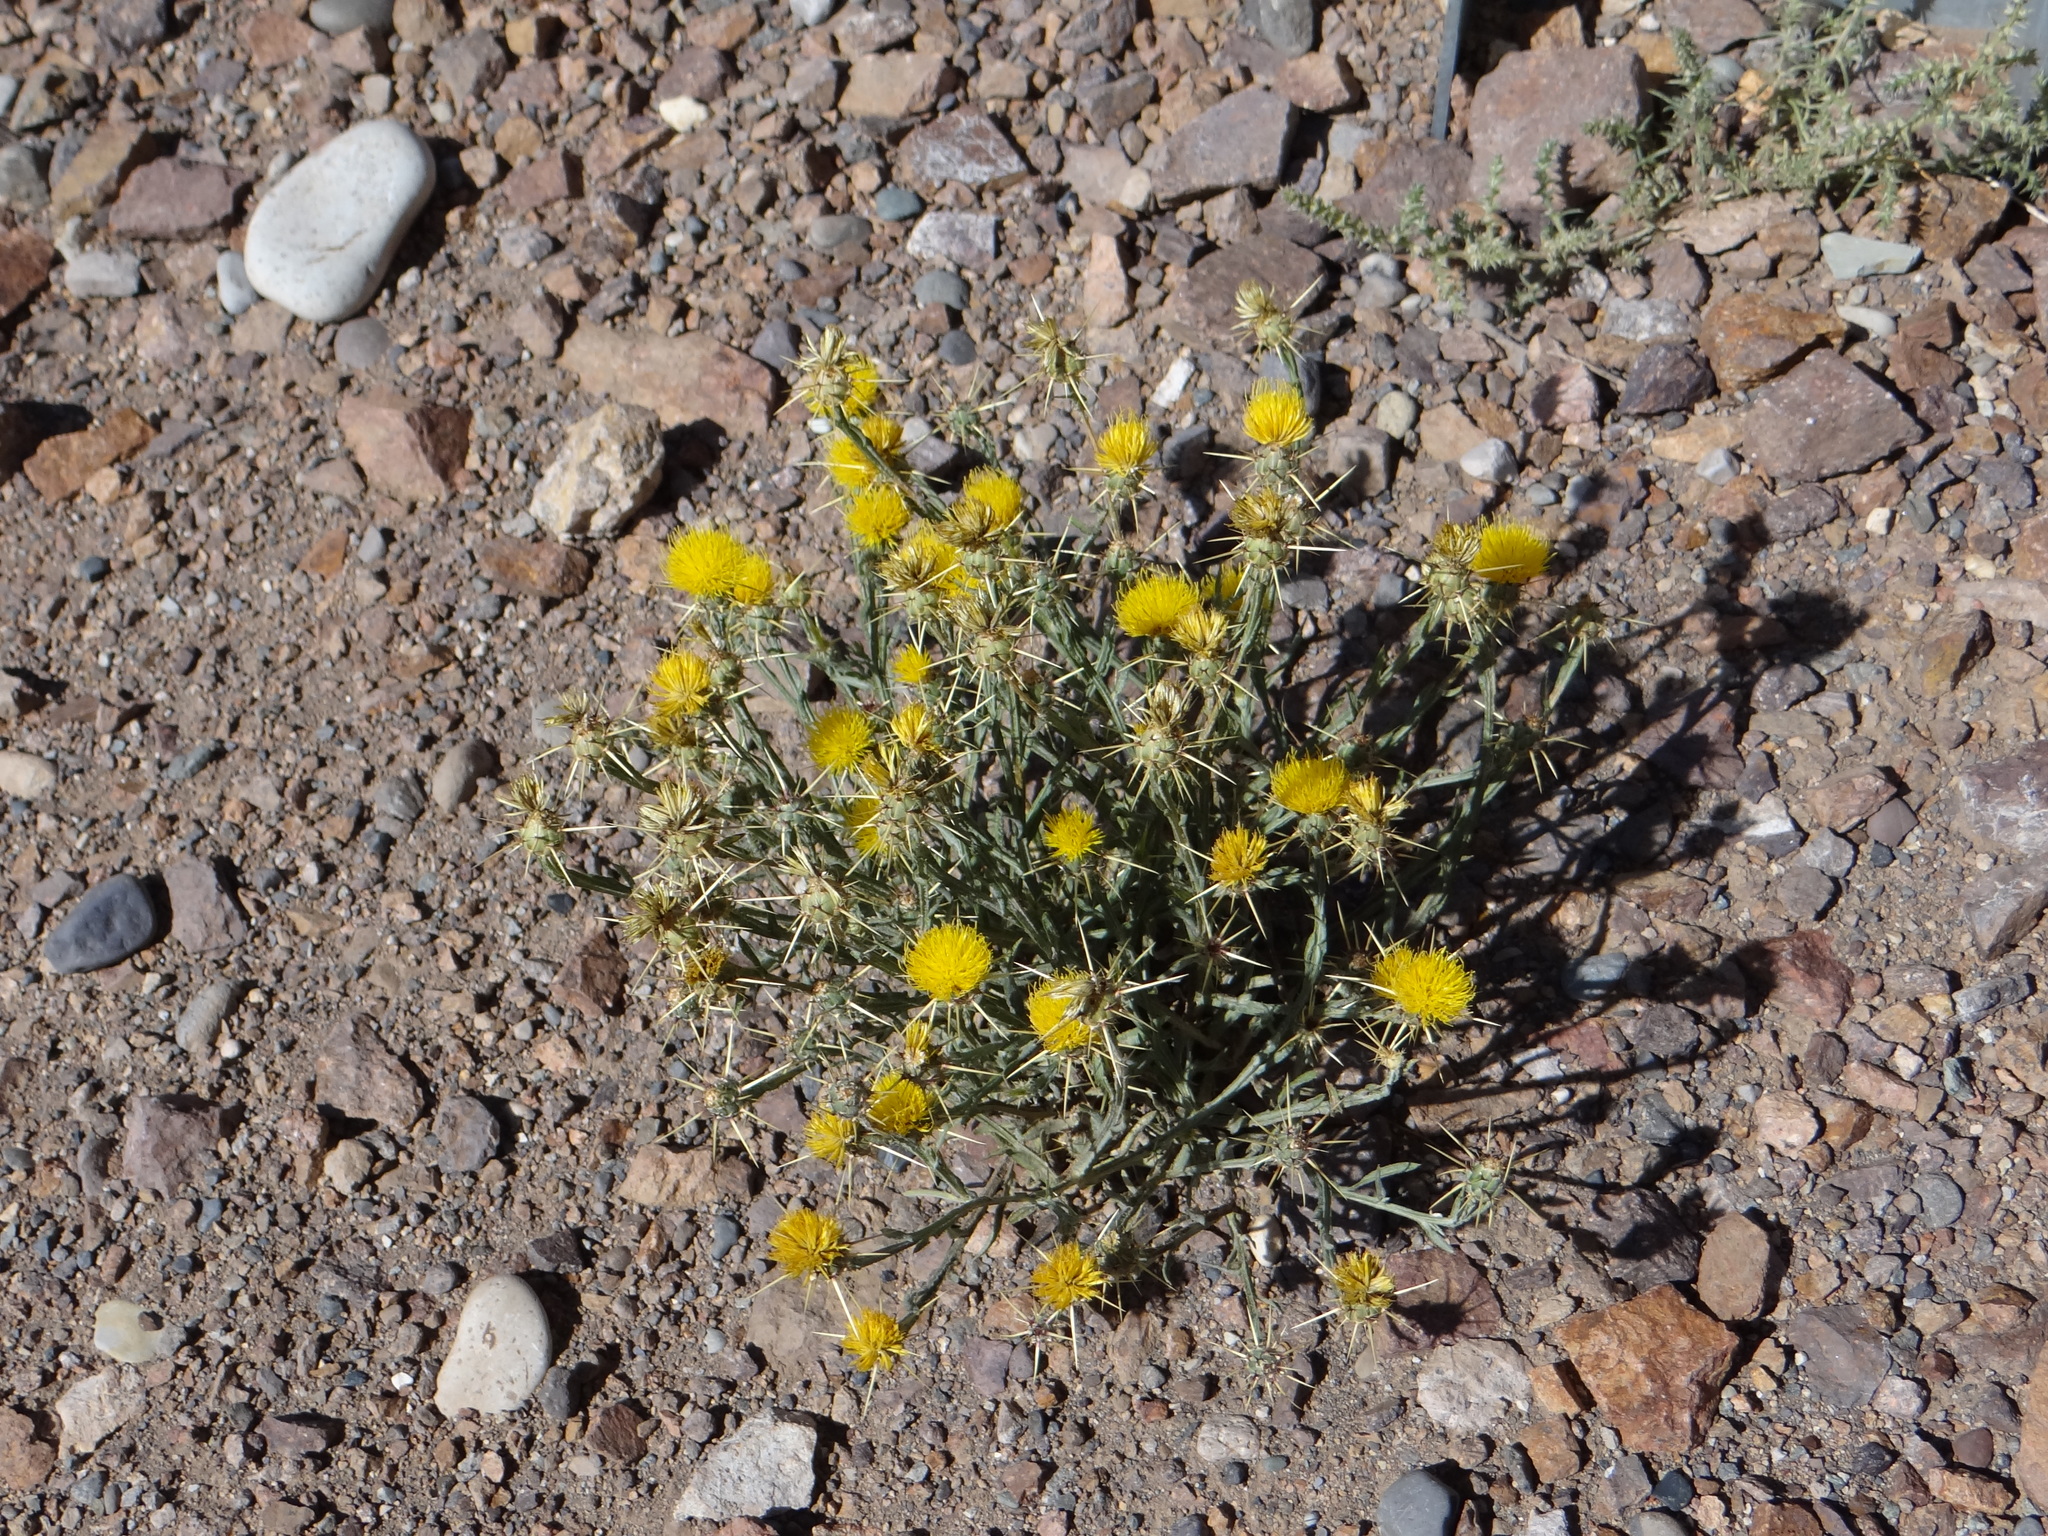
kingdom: Plantae
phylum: Tracheophyta
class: Magnoliopsida
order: Asterales
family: Asteraceae
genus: Centaurea
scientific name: Centaurea solstitialis
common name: Yellow star-thistle
